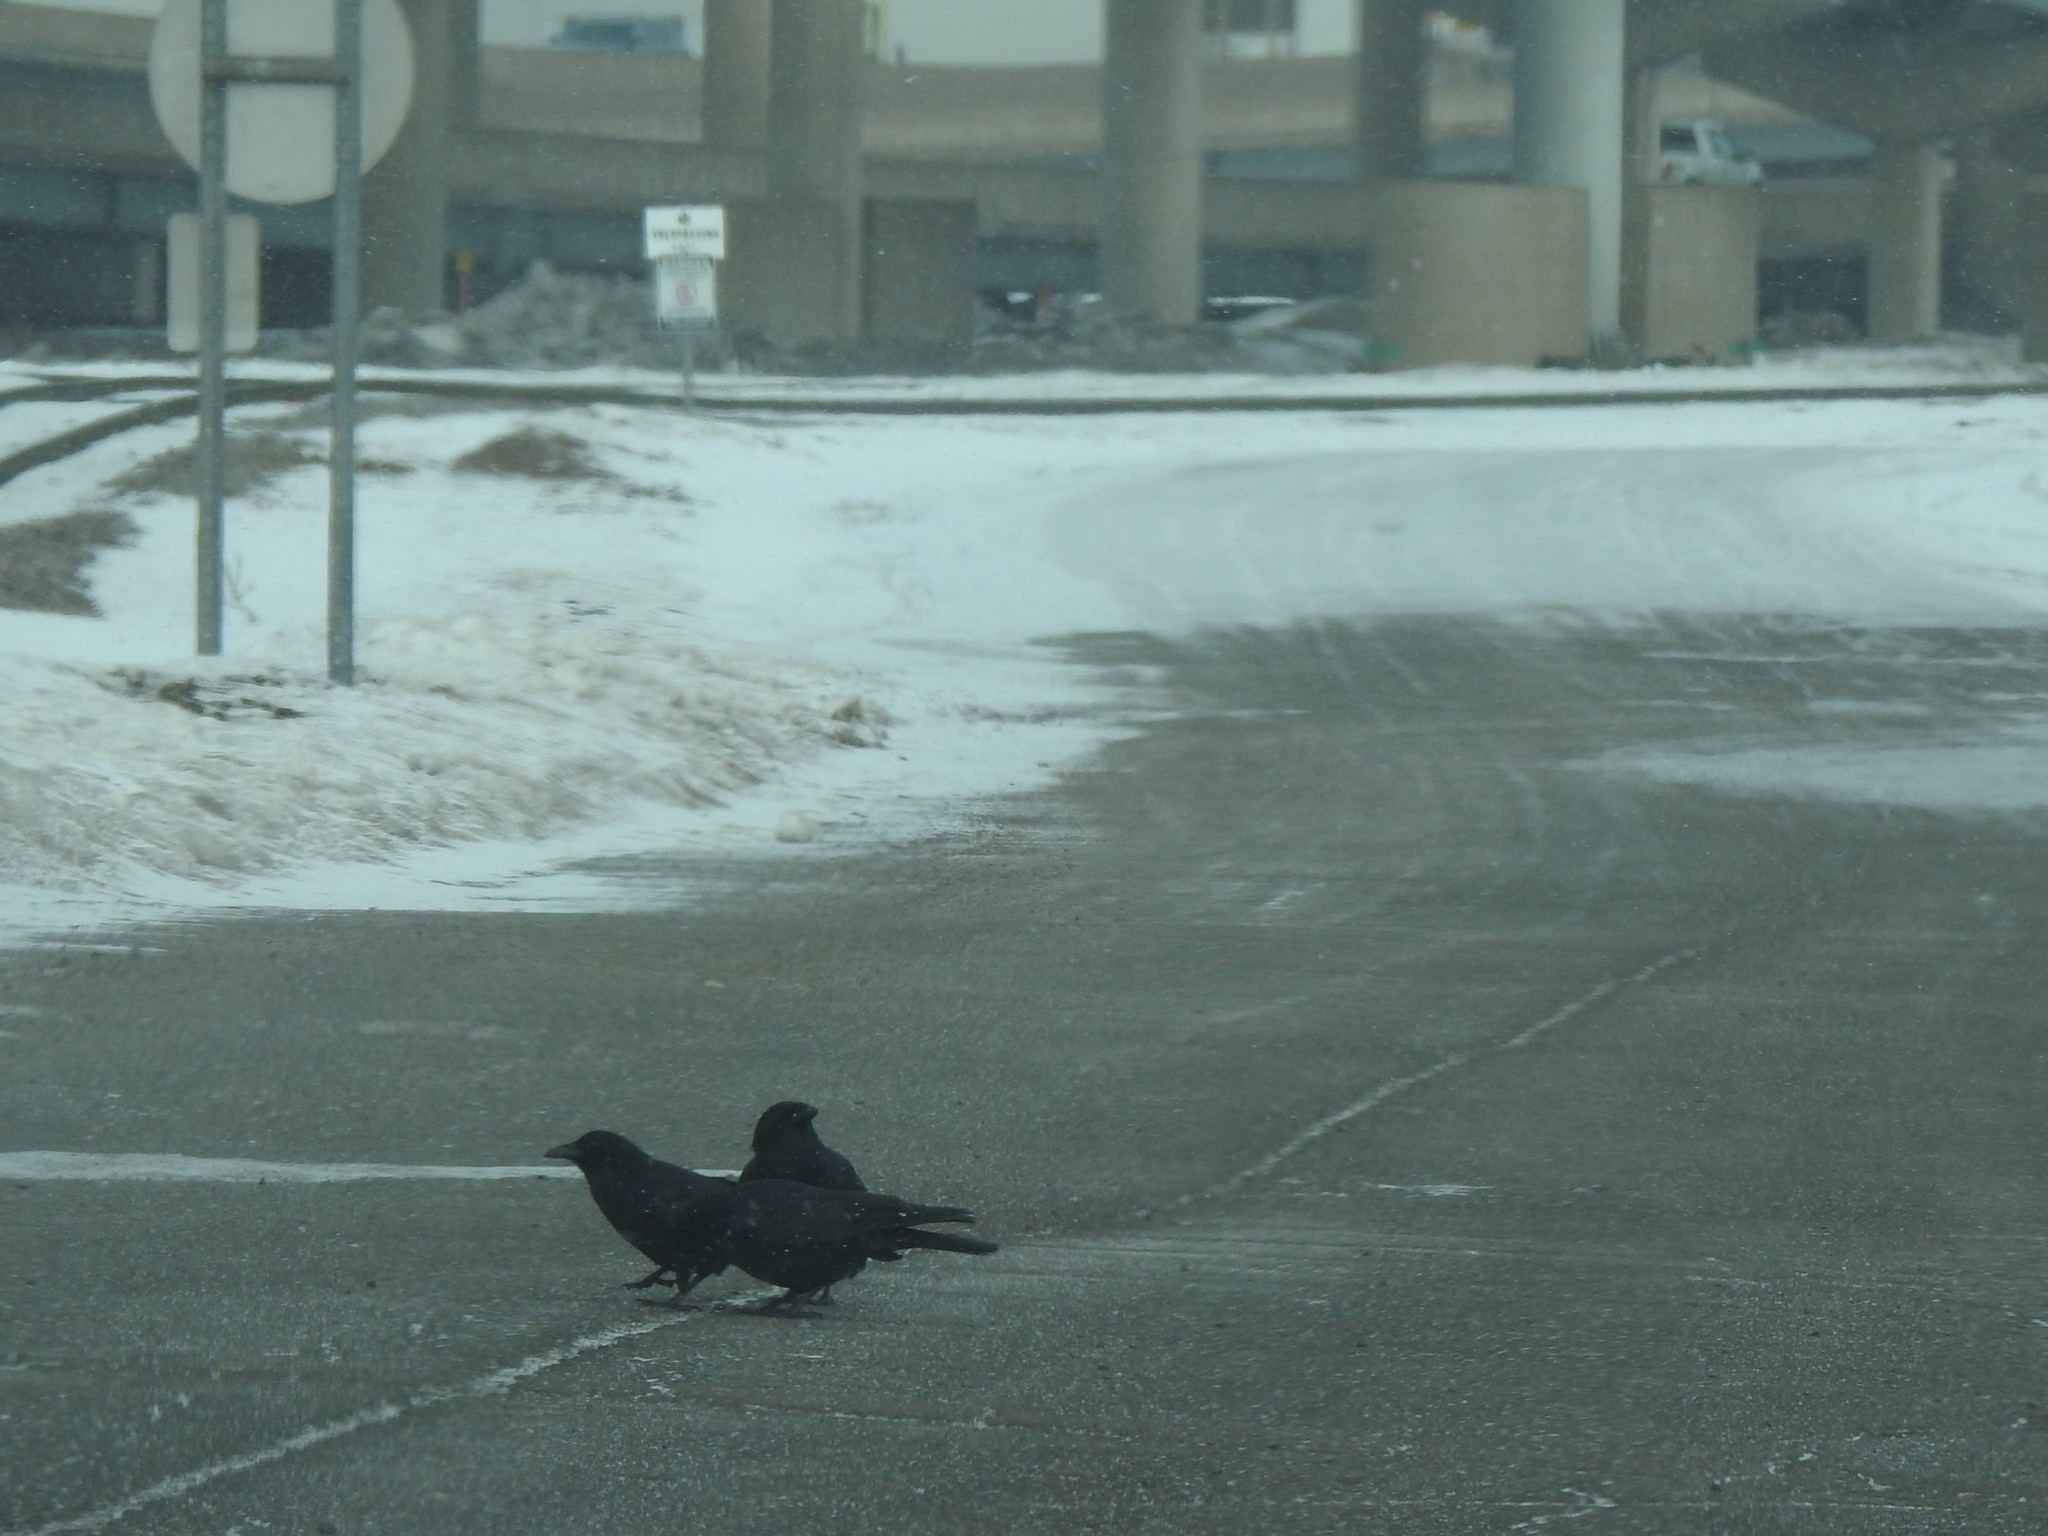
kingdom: Animalia
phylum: Chordata
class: Aves
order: Passeriformes
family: Corvidae
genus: Corvus
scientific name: Corvus brachyrhynchos
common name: American crow
